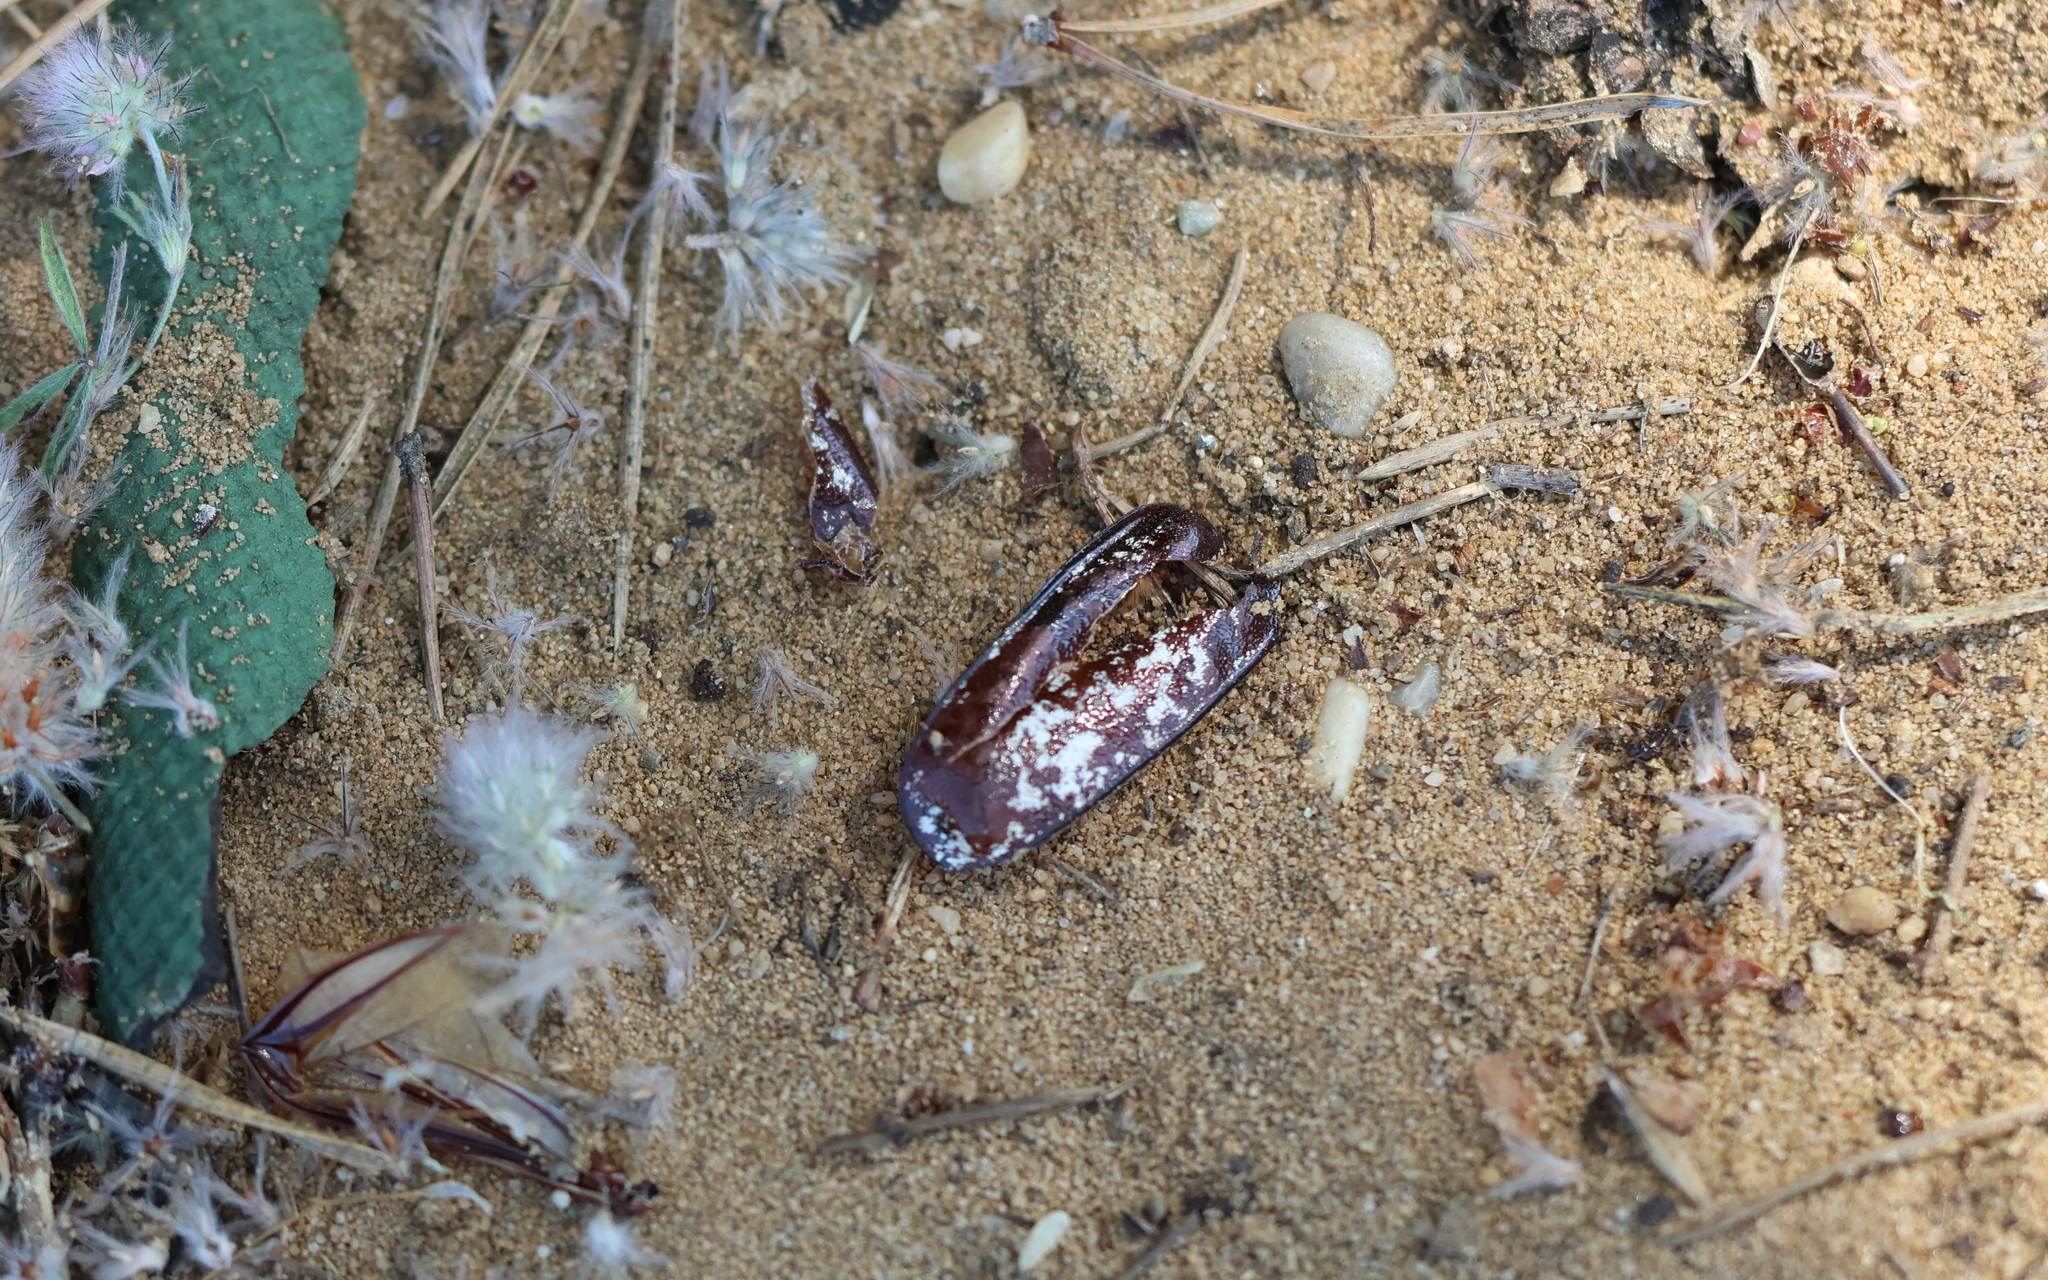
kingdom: Animalia
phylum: Arthropoda
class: Insecta
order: Coleoptera
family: Scarabaeidae
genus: Polyphylla
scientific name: Polyphylla fullo
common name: Pine chafer
